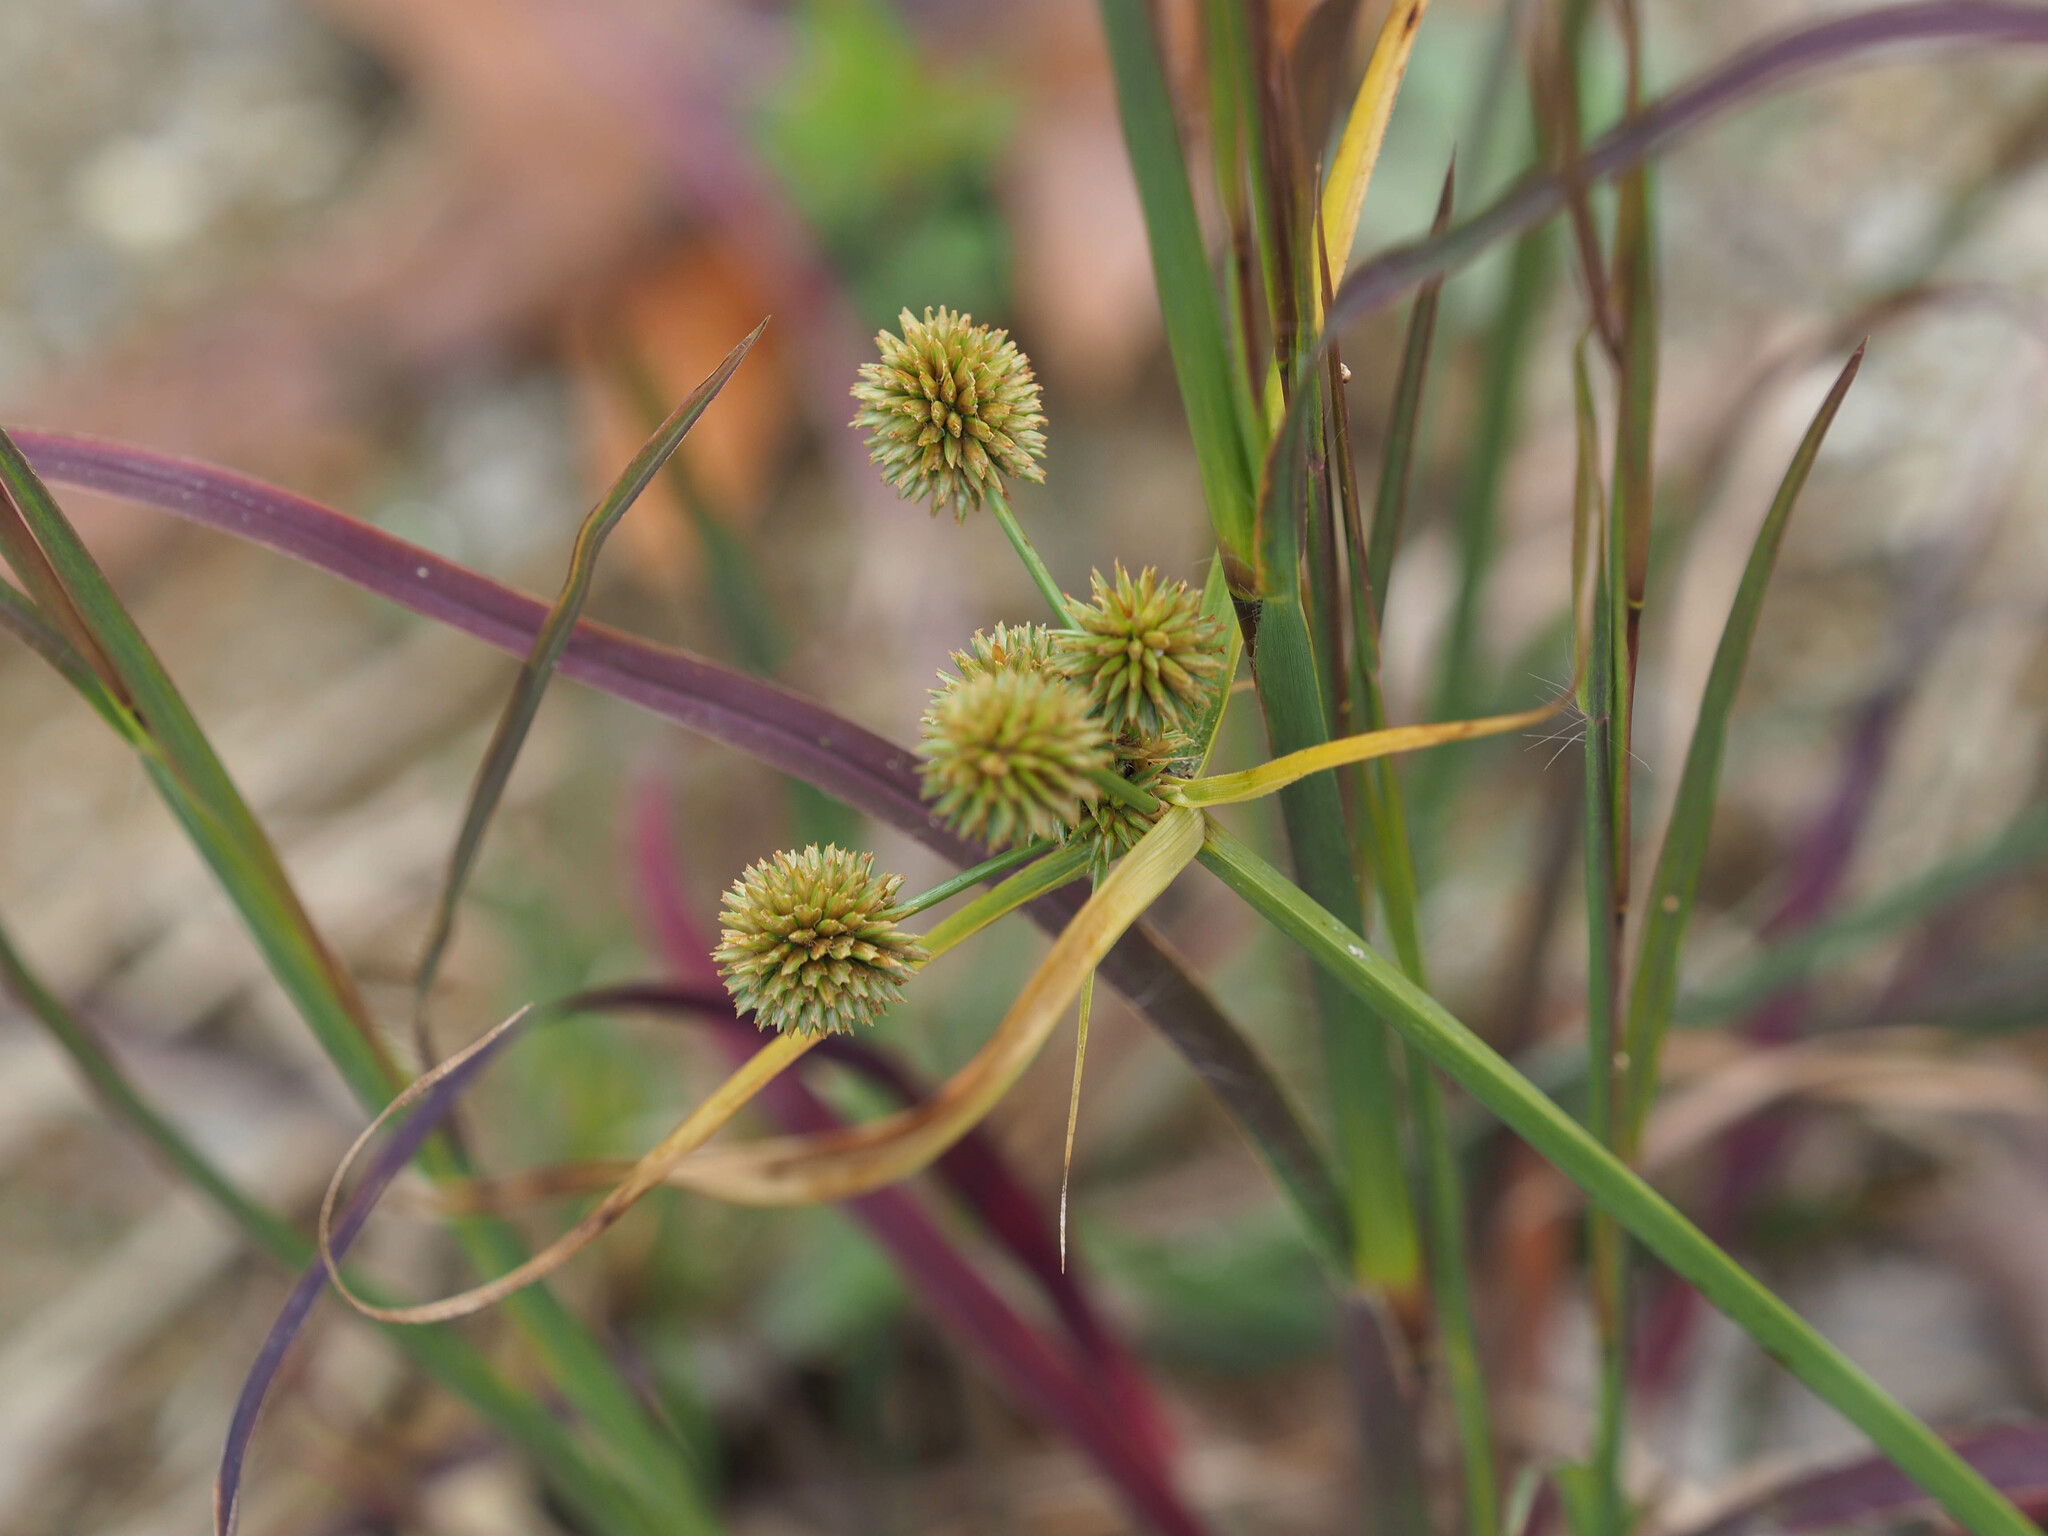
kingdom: Plantae
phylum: Tracheophyta
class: Liliopsida
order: Poales
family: Cyperaceae
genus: Cyperus
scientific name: Cyperus echinatus
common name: Teasel sedge
